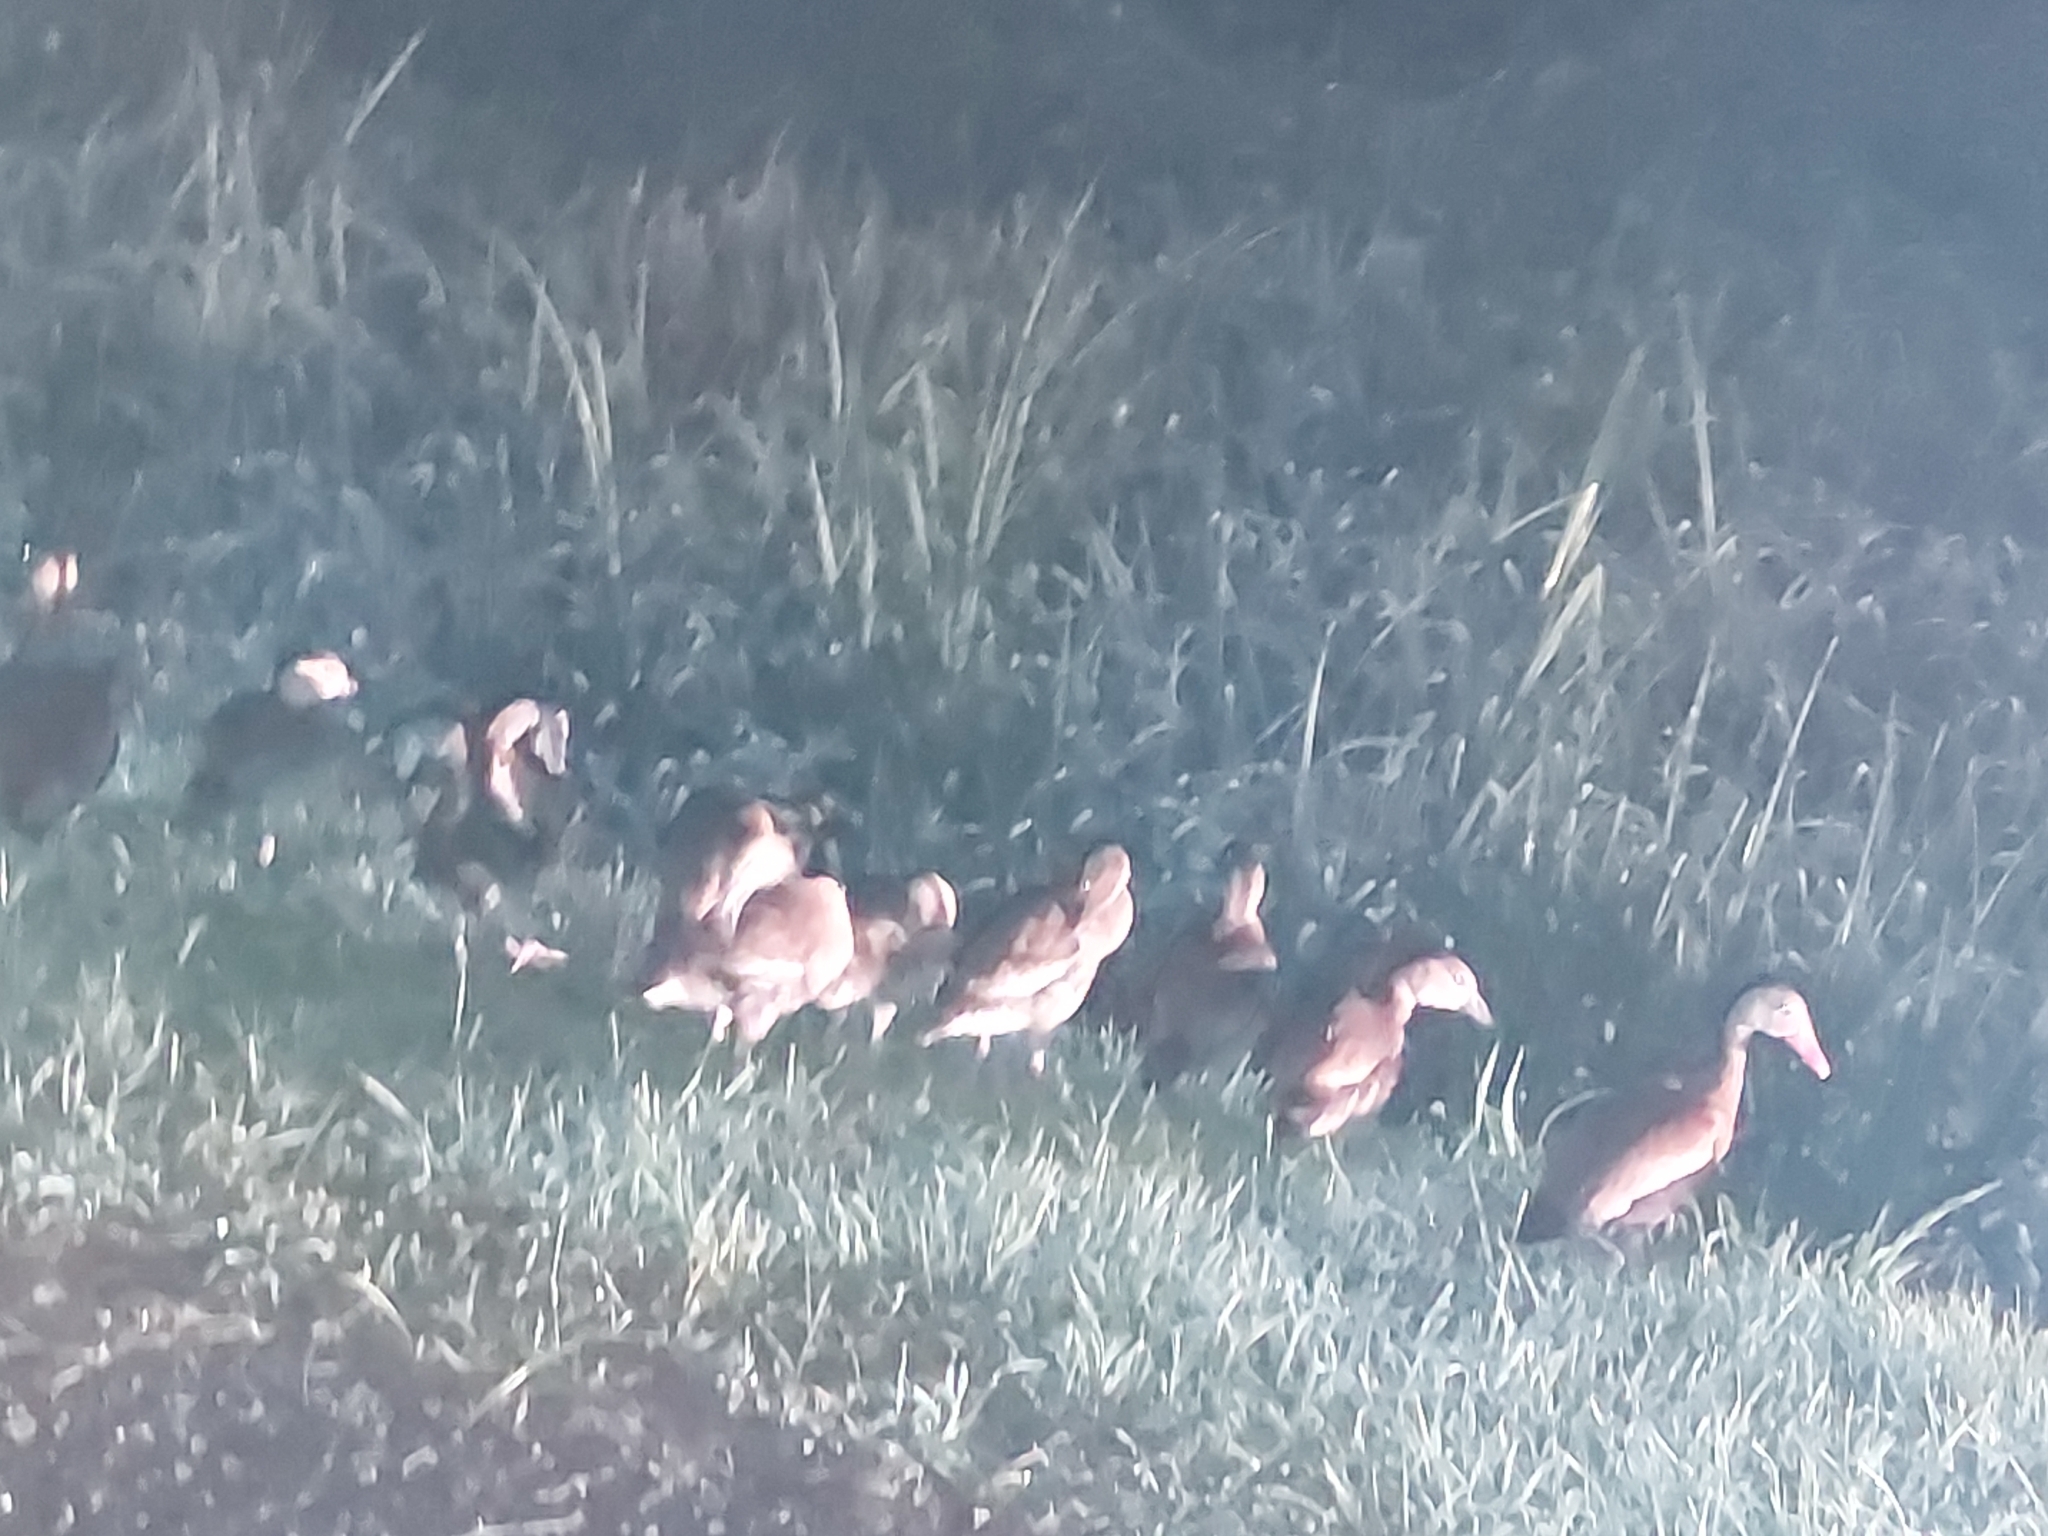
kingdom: Animalia
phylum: Chordata
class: Aves
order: Anseriformes
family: Anatidae
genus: Dendrocygna
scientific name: Dendrocygna autumnalis
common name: Black-bellied whistling duck
